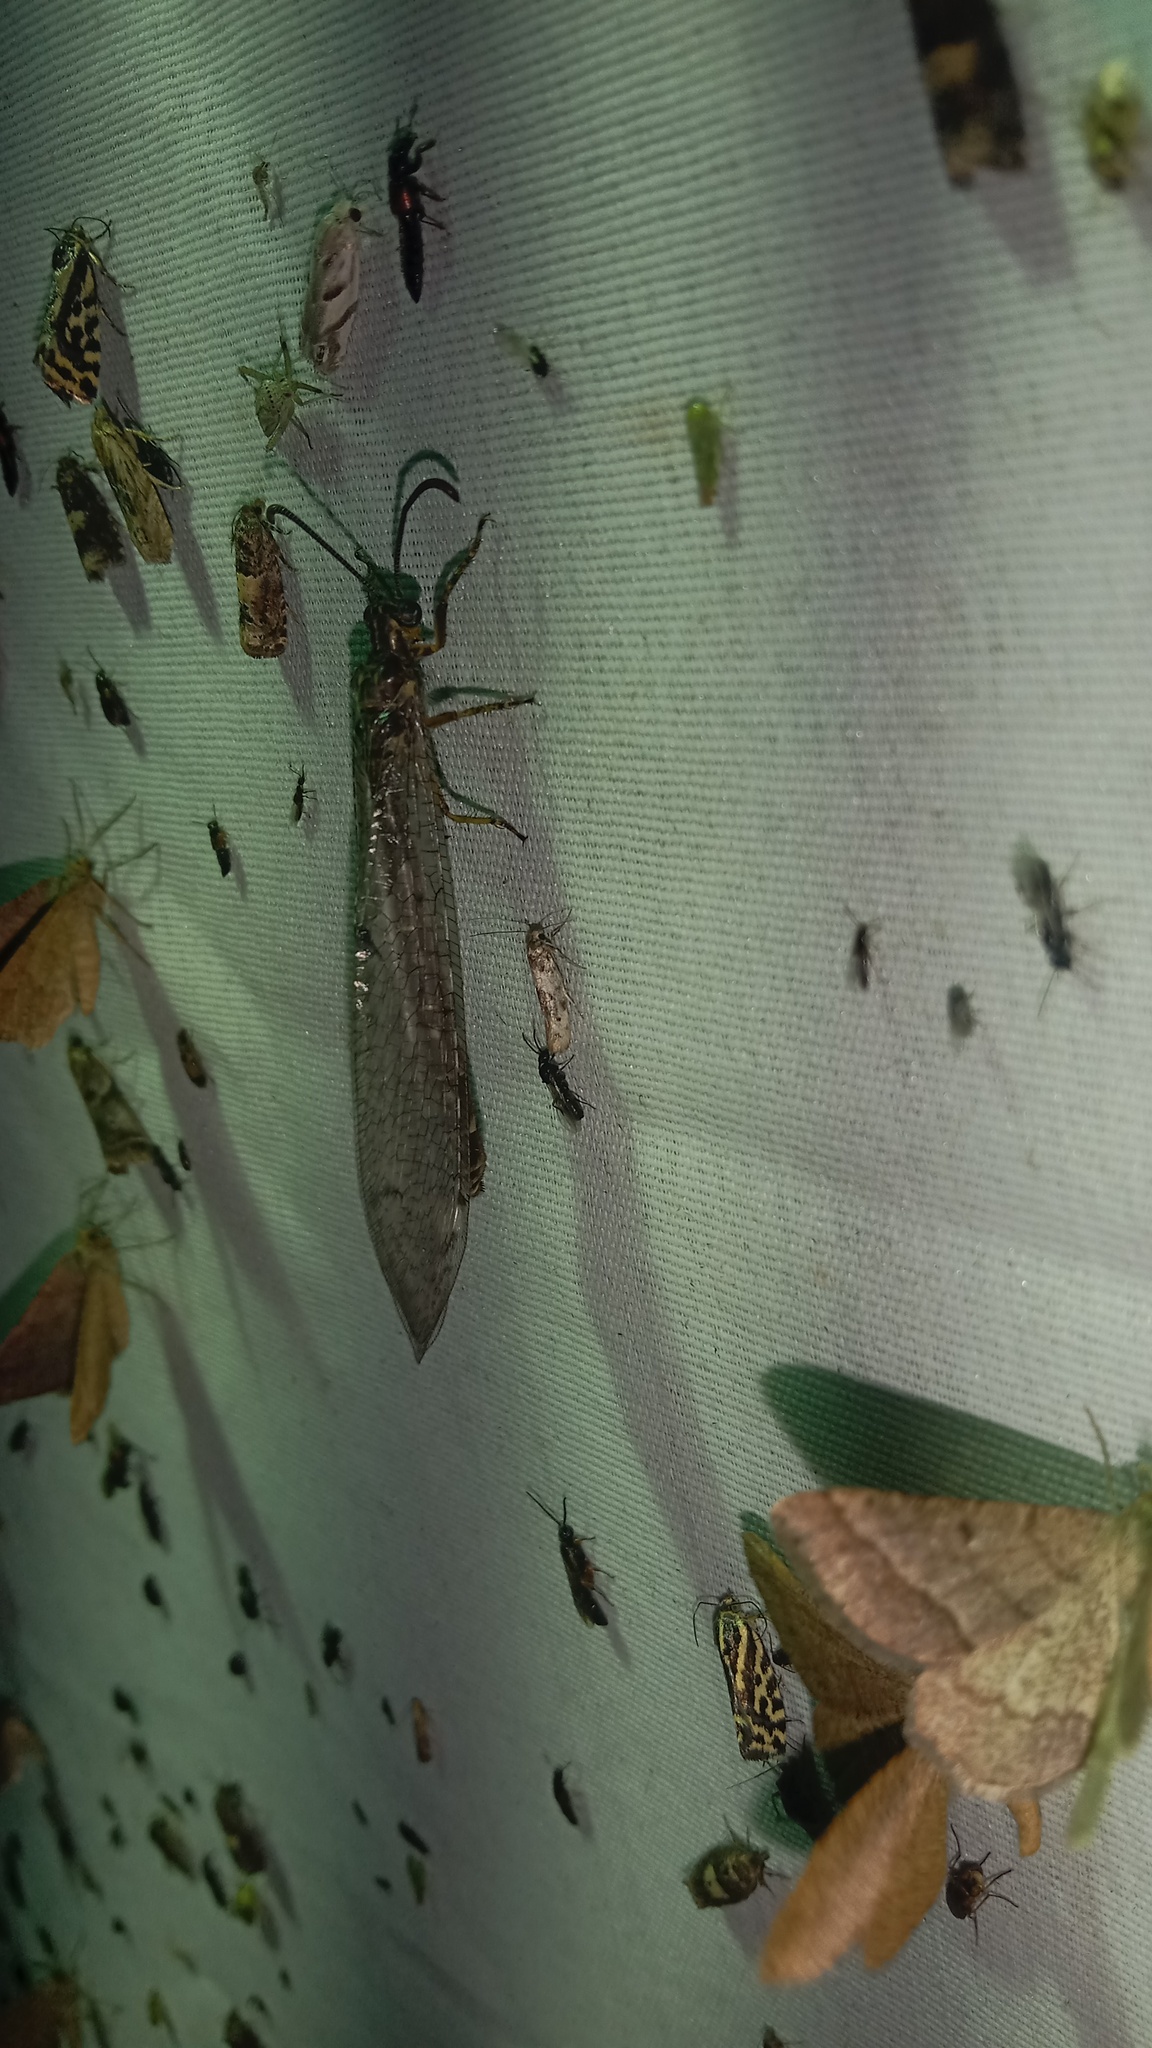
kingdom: Animalia
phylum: Arthropoda
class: Insecta
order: Neuroptera
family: Myrmeleontidae
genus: Distoleon
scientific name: Distoleon tetragrammicus
